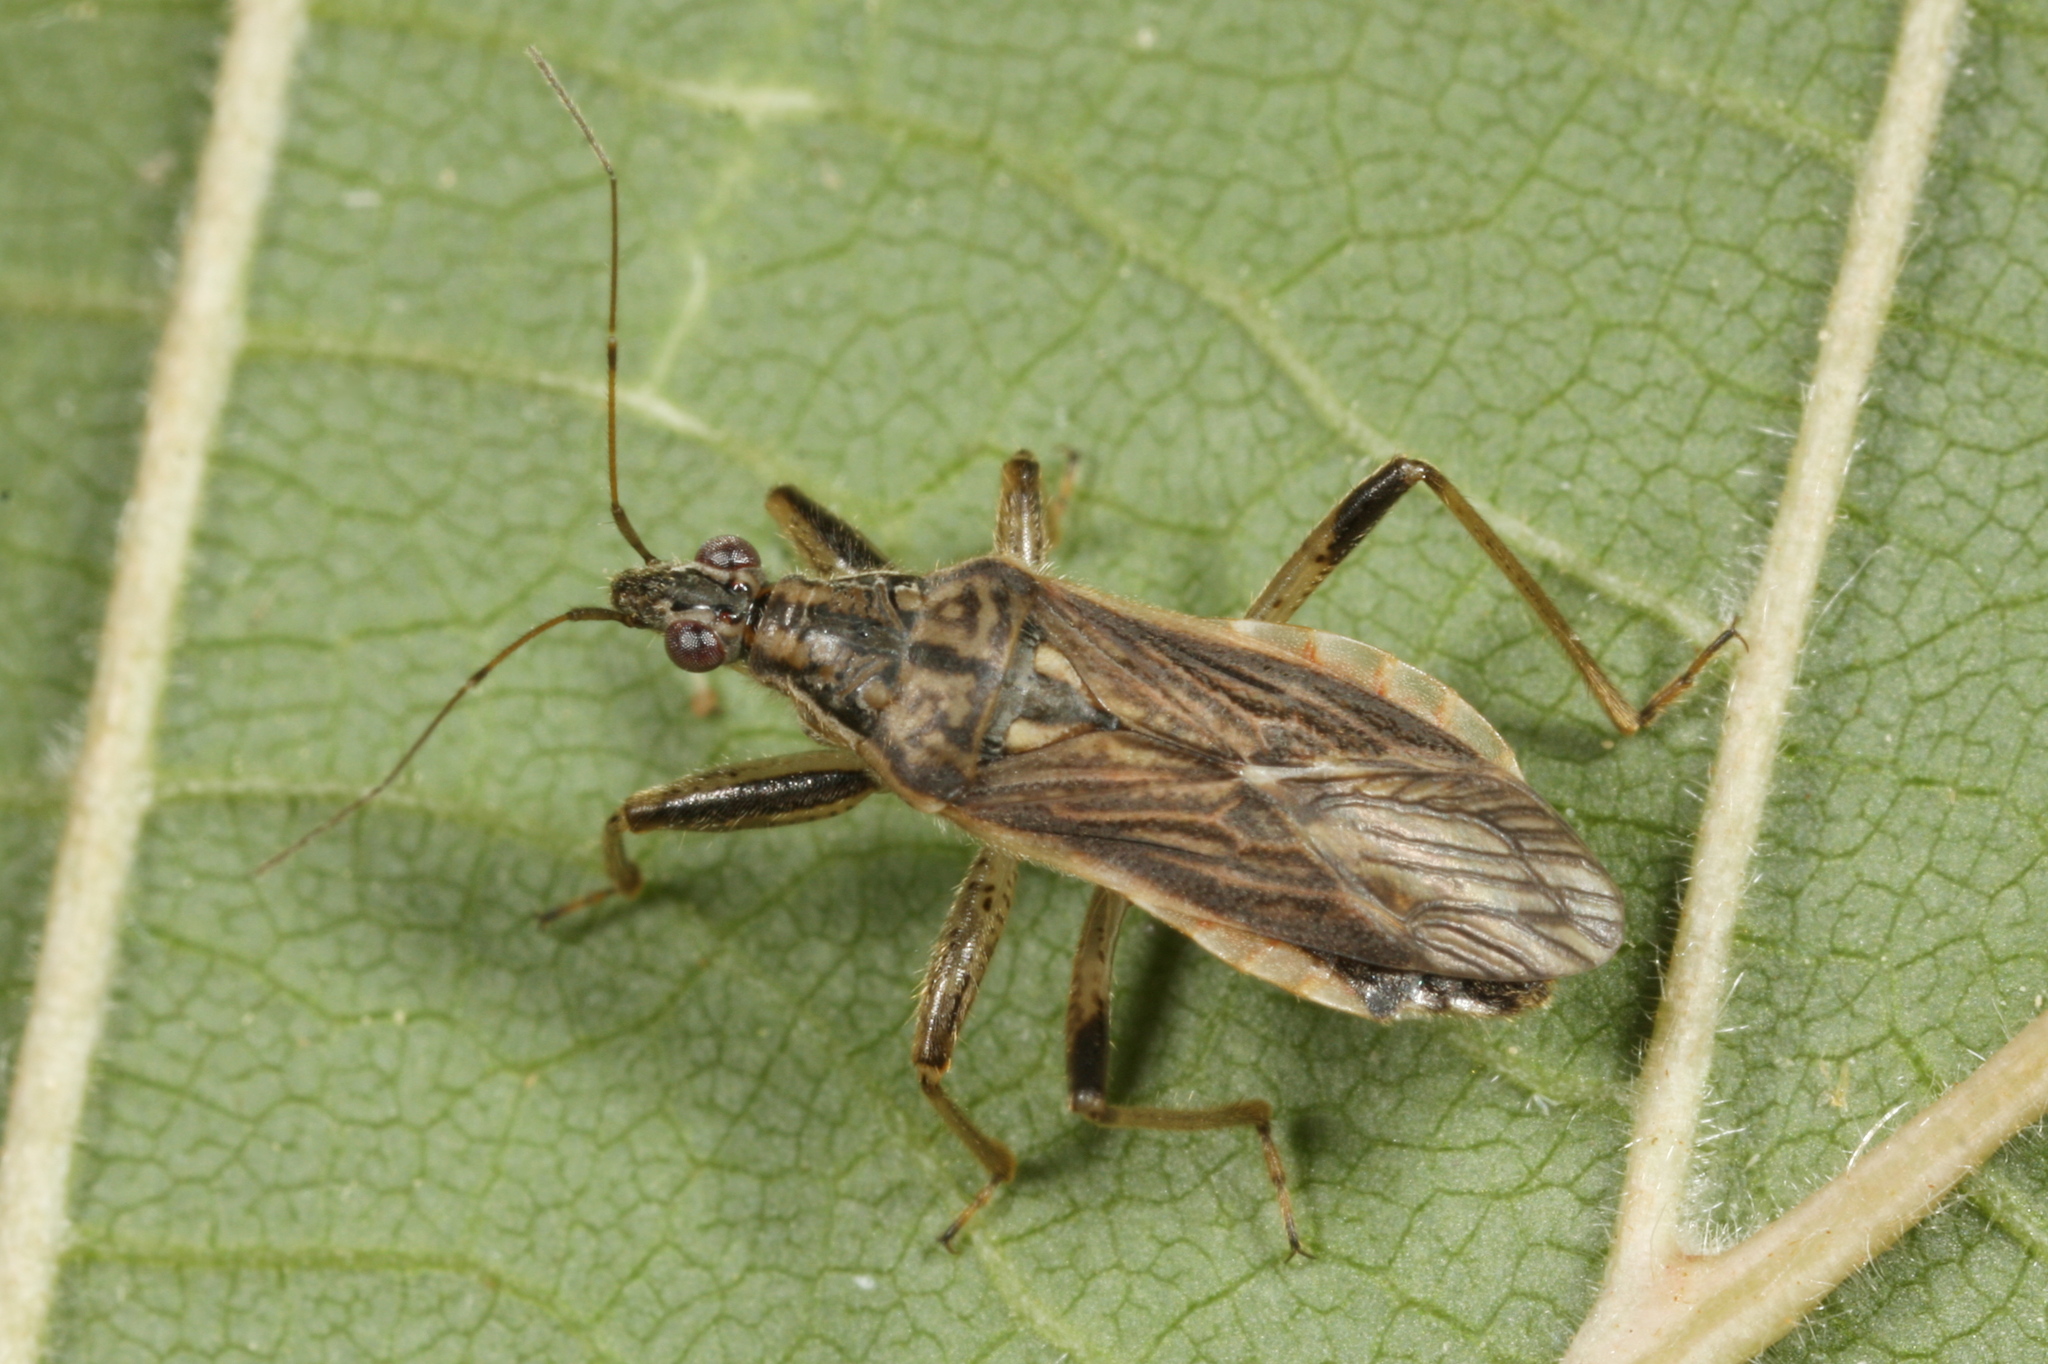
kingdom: Animalia
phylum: Arthropoda
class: Insecta
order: Hemiptera
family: Nabidae
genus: Himacerus
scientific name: Himacerus major
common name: Damsel bug
